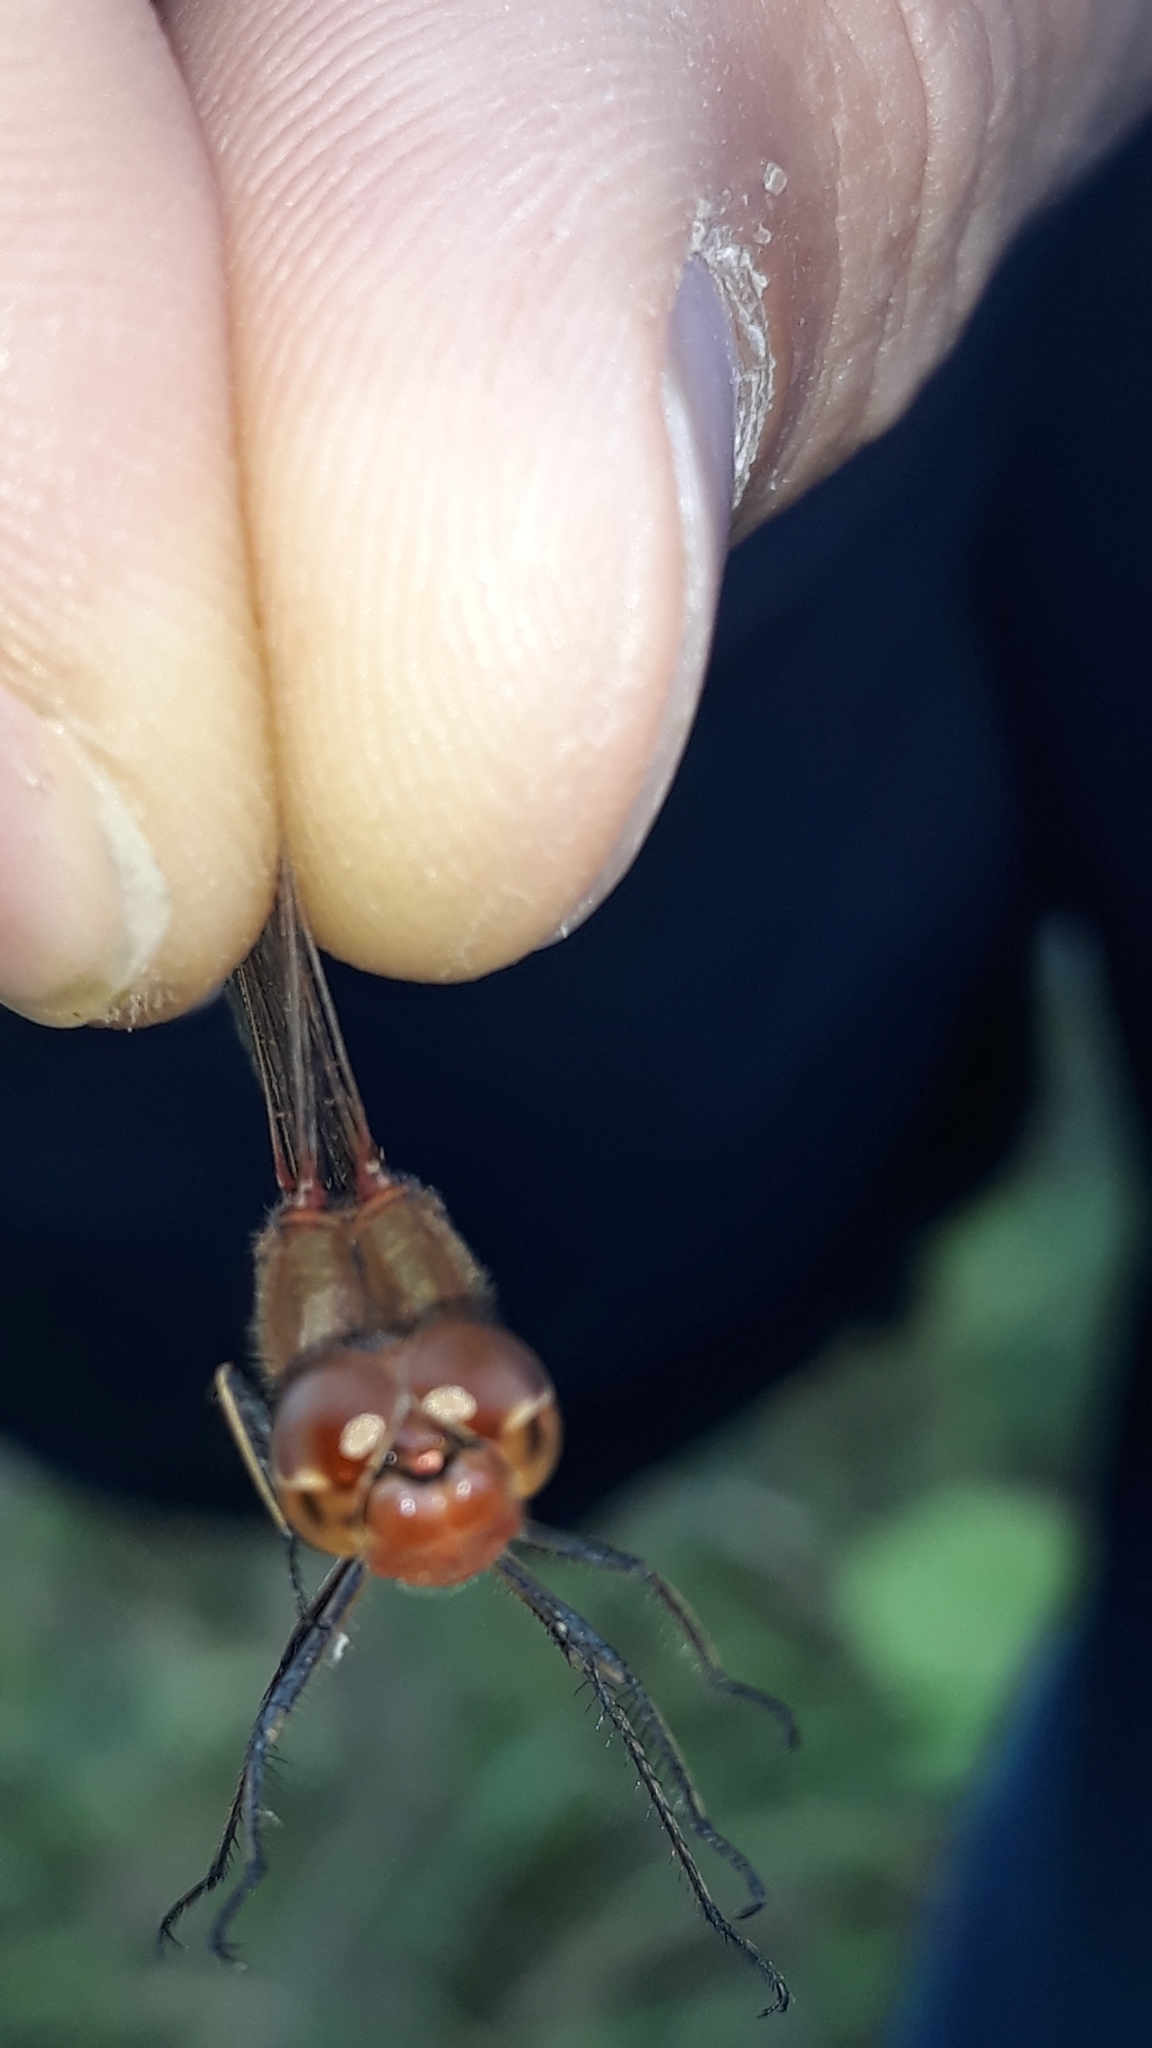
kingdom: Animalia
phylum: Arthropoda
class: Insecta
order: Odonata
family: Libellulidae
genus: Sympetrum
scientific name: Sympetrum meridionale
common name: Southern darter
